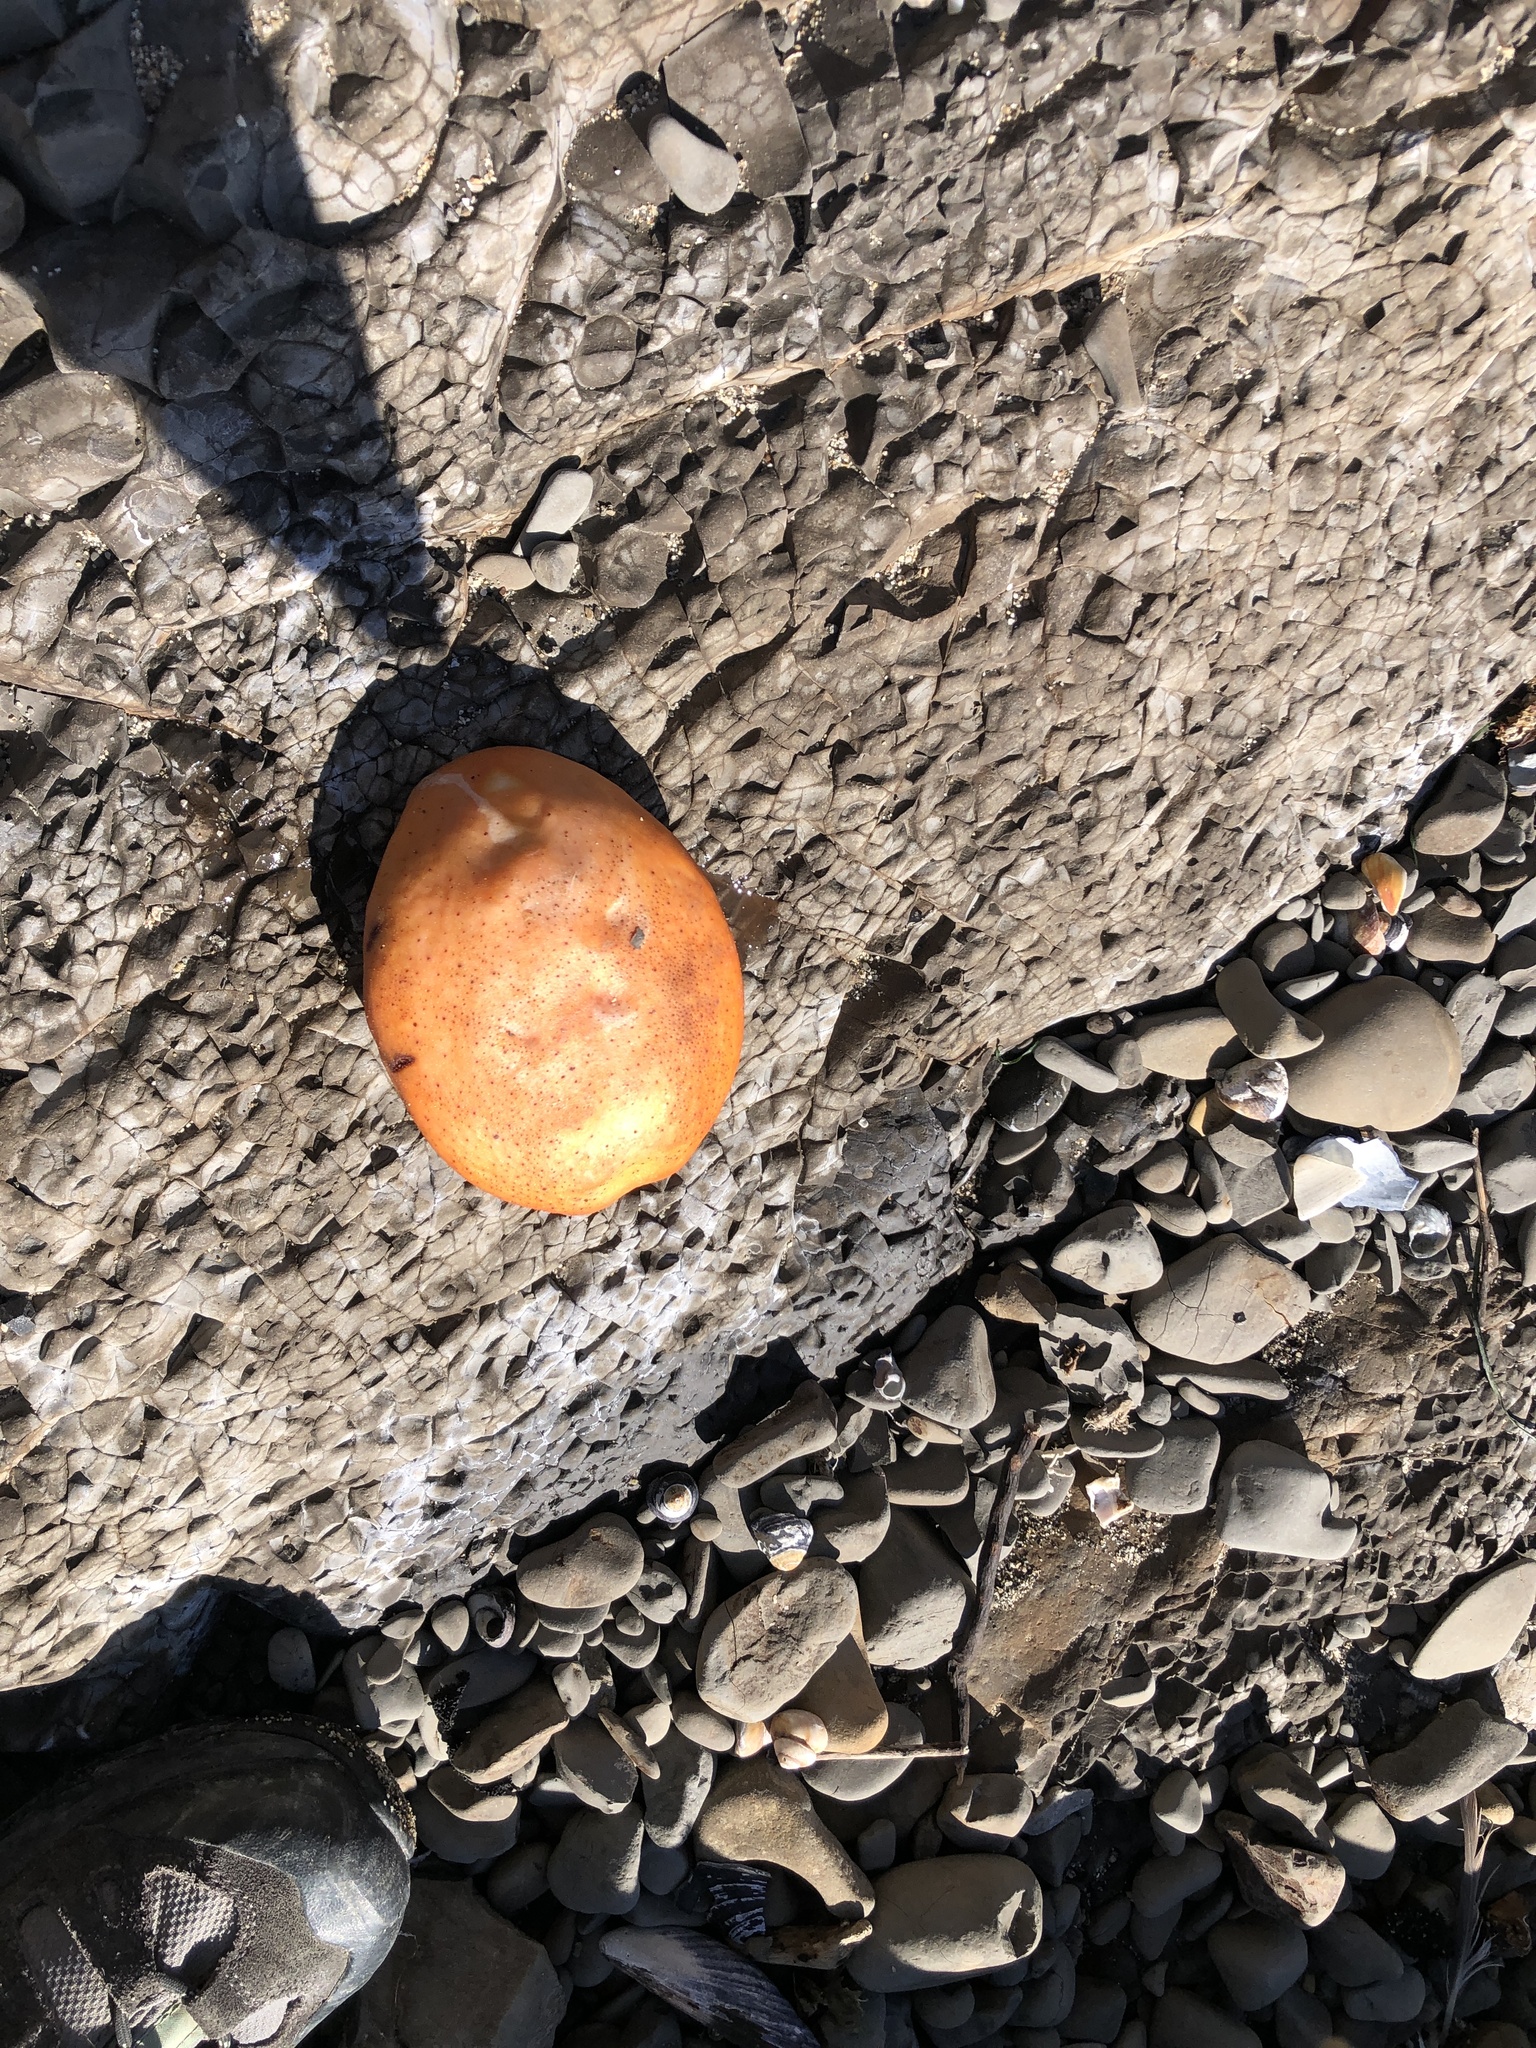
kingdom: Animalia
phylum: Mollusca
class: Polyplacophora
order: Chitonida
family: Acanthochitonidae
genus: Cryptochiton
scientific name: Cryptochiton stelleri
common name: Giant pacific chiton
